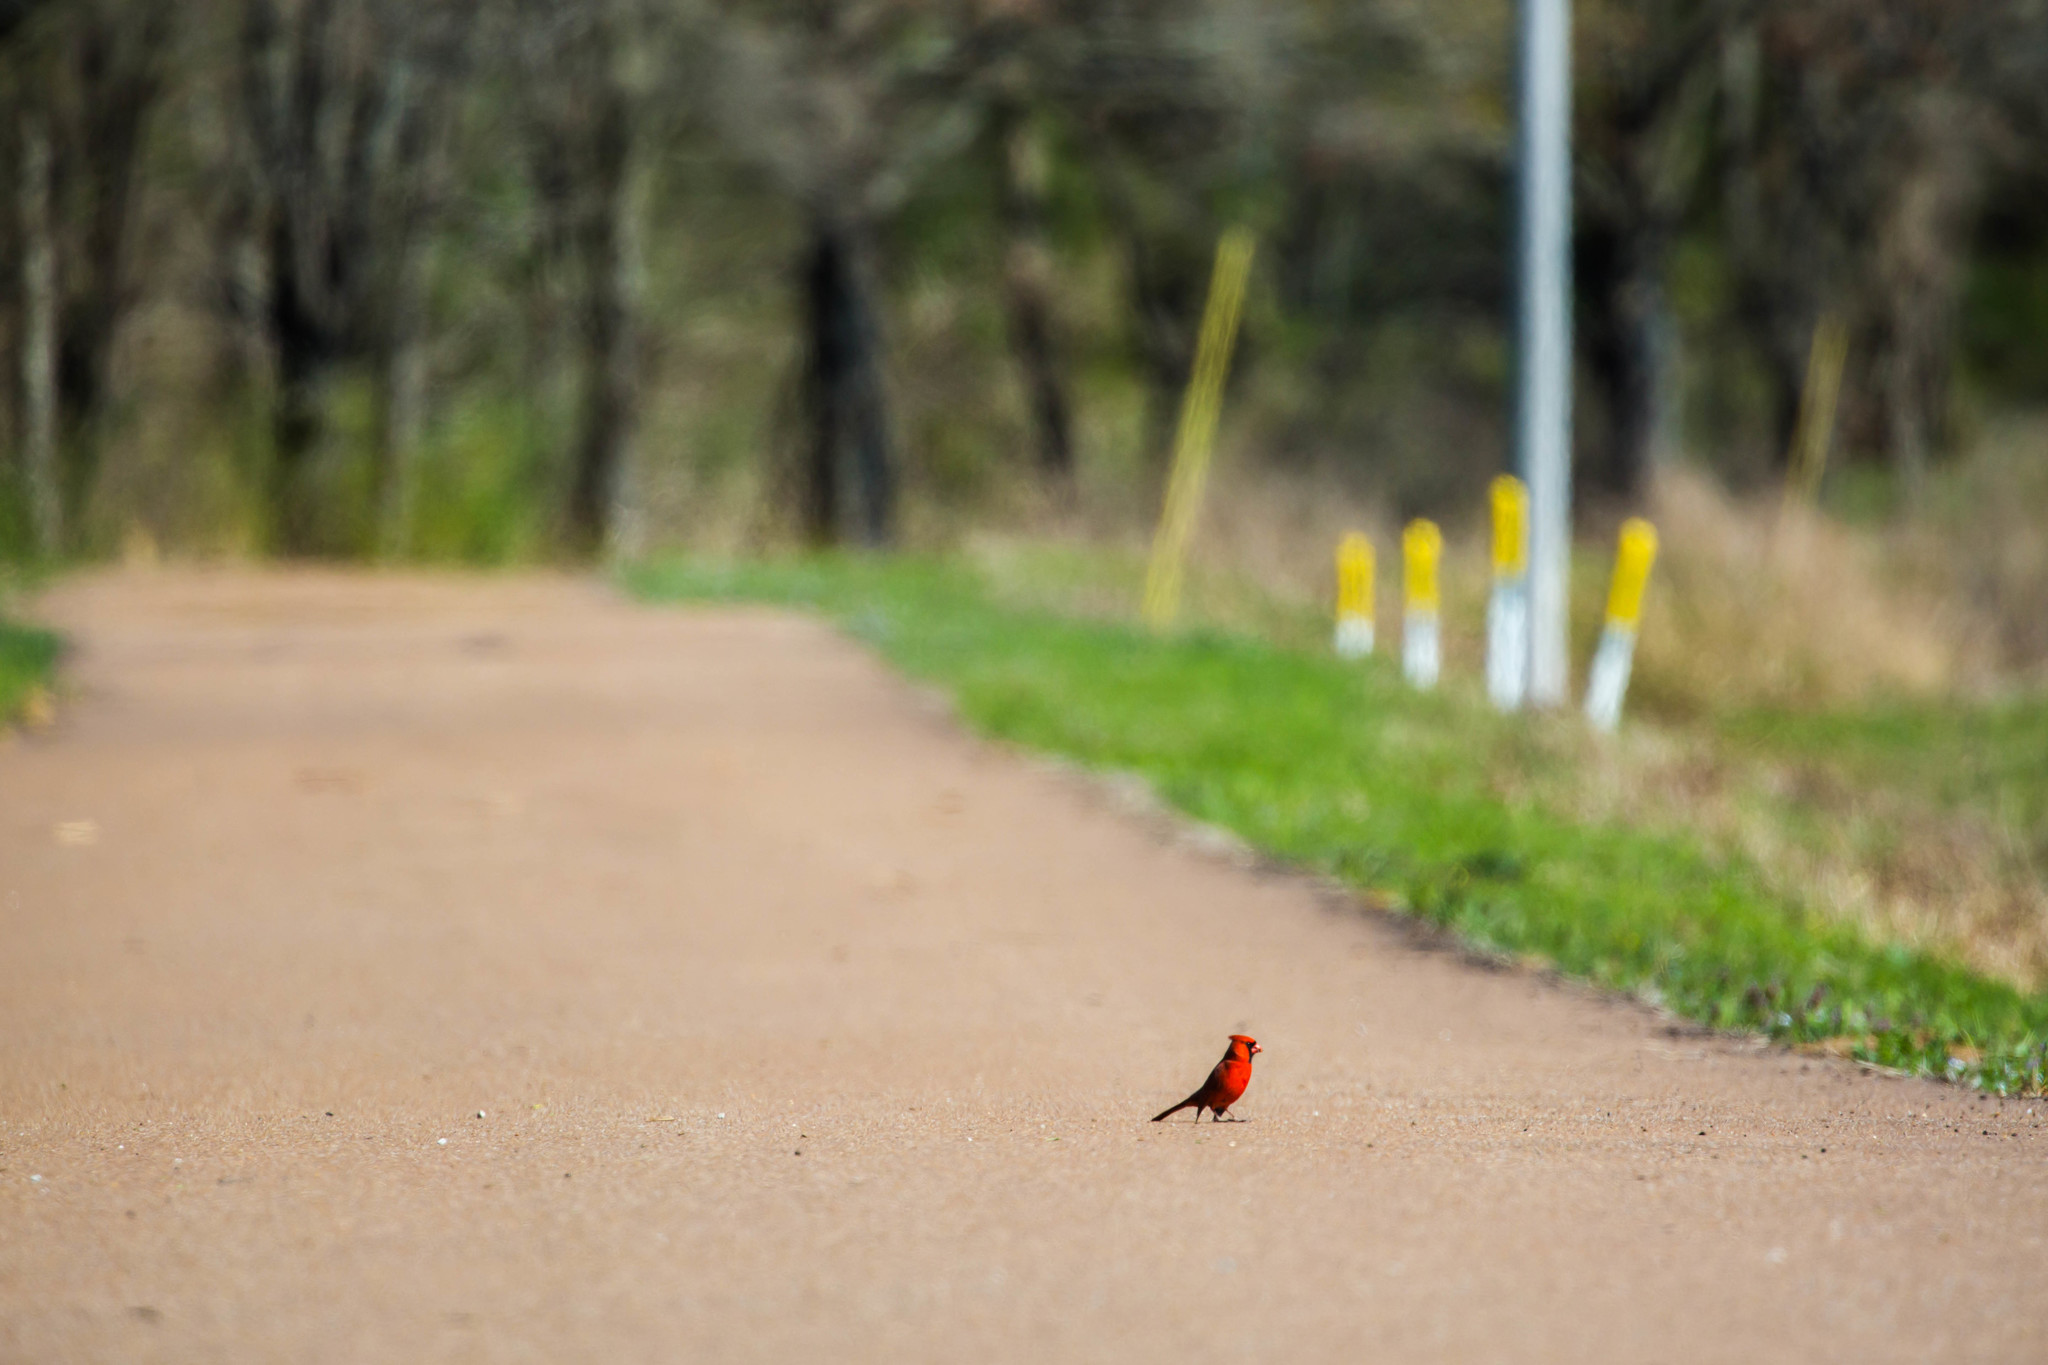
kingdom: Animalia
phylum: Chordata
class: Aves
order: Passeriformes
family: Cardinalidae
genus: Cardinalis
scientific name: Cardinalis cardinalis
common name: Northern cardinal
